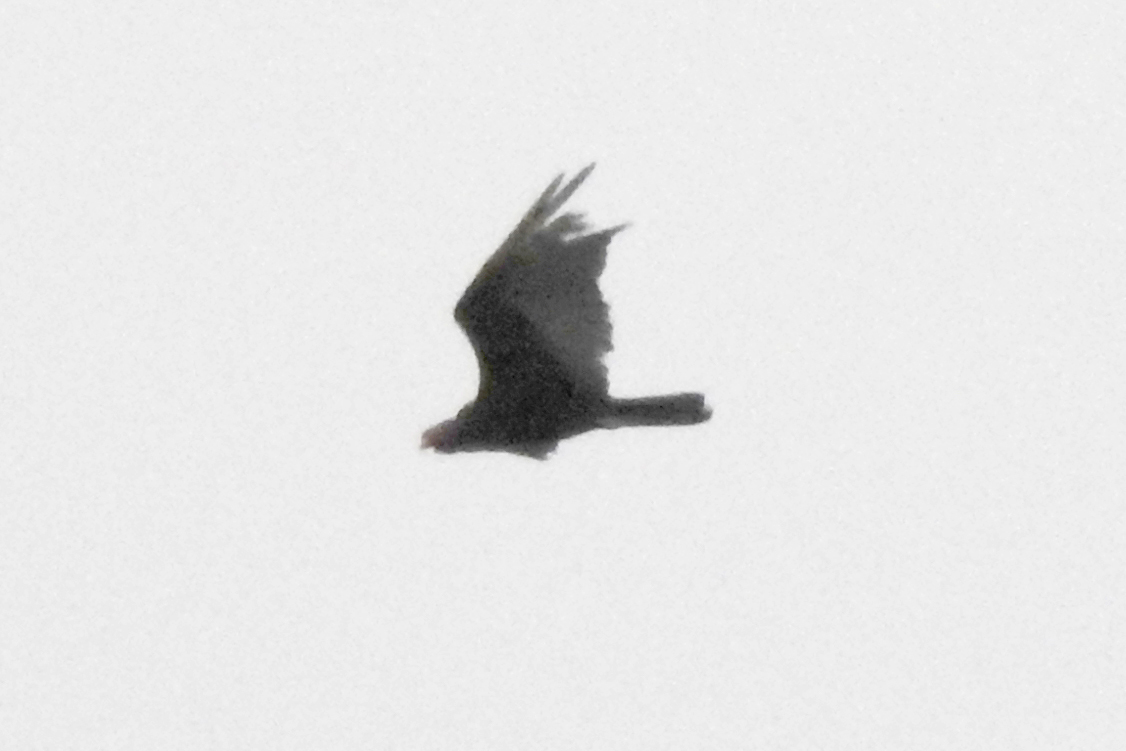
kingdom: Animalia
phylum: Chordata
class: Aves
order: Accipitriformes
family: Cathartidae
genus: Cathartes
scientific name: Cathartes aura
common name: Turkey vulture
